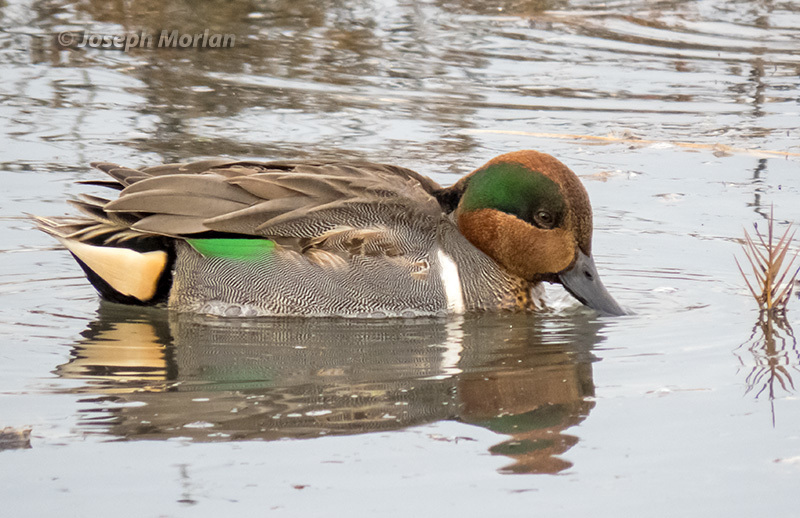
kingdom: Animalia
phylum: Chordata
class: Aves
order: Anseriformes
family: Anatidae
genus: Anas
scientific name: Anas crecca
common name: Eurasian teal
